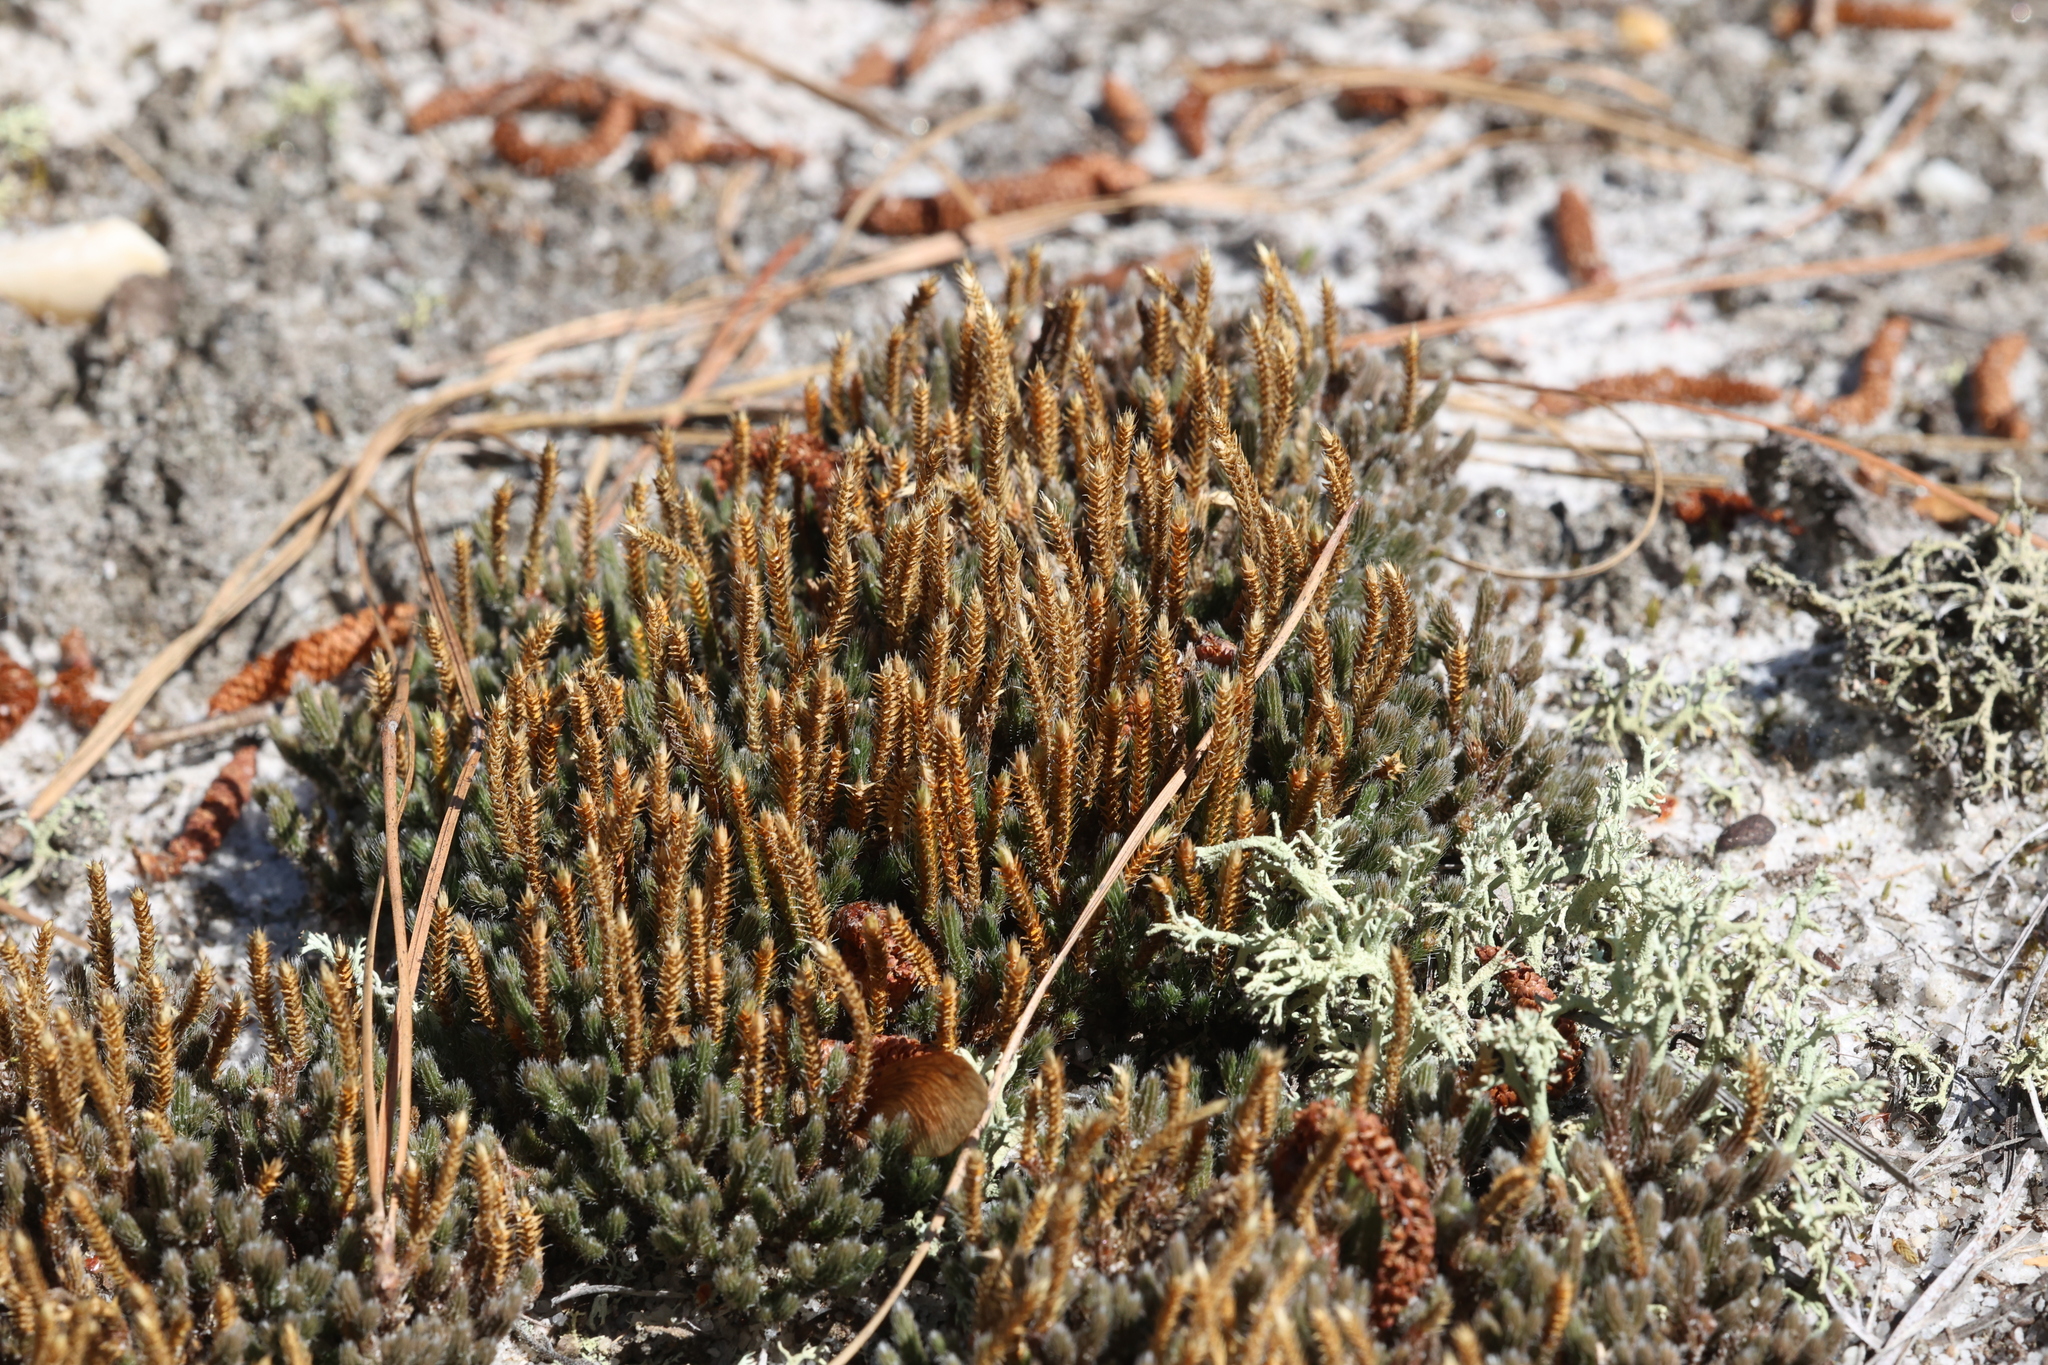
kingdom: Plantae
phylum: Tracheophyta
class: Lycopodiopsida
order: Selaginellales
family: Selaginellaceae
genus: Selaginella
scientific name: Selaginella acanthonota
